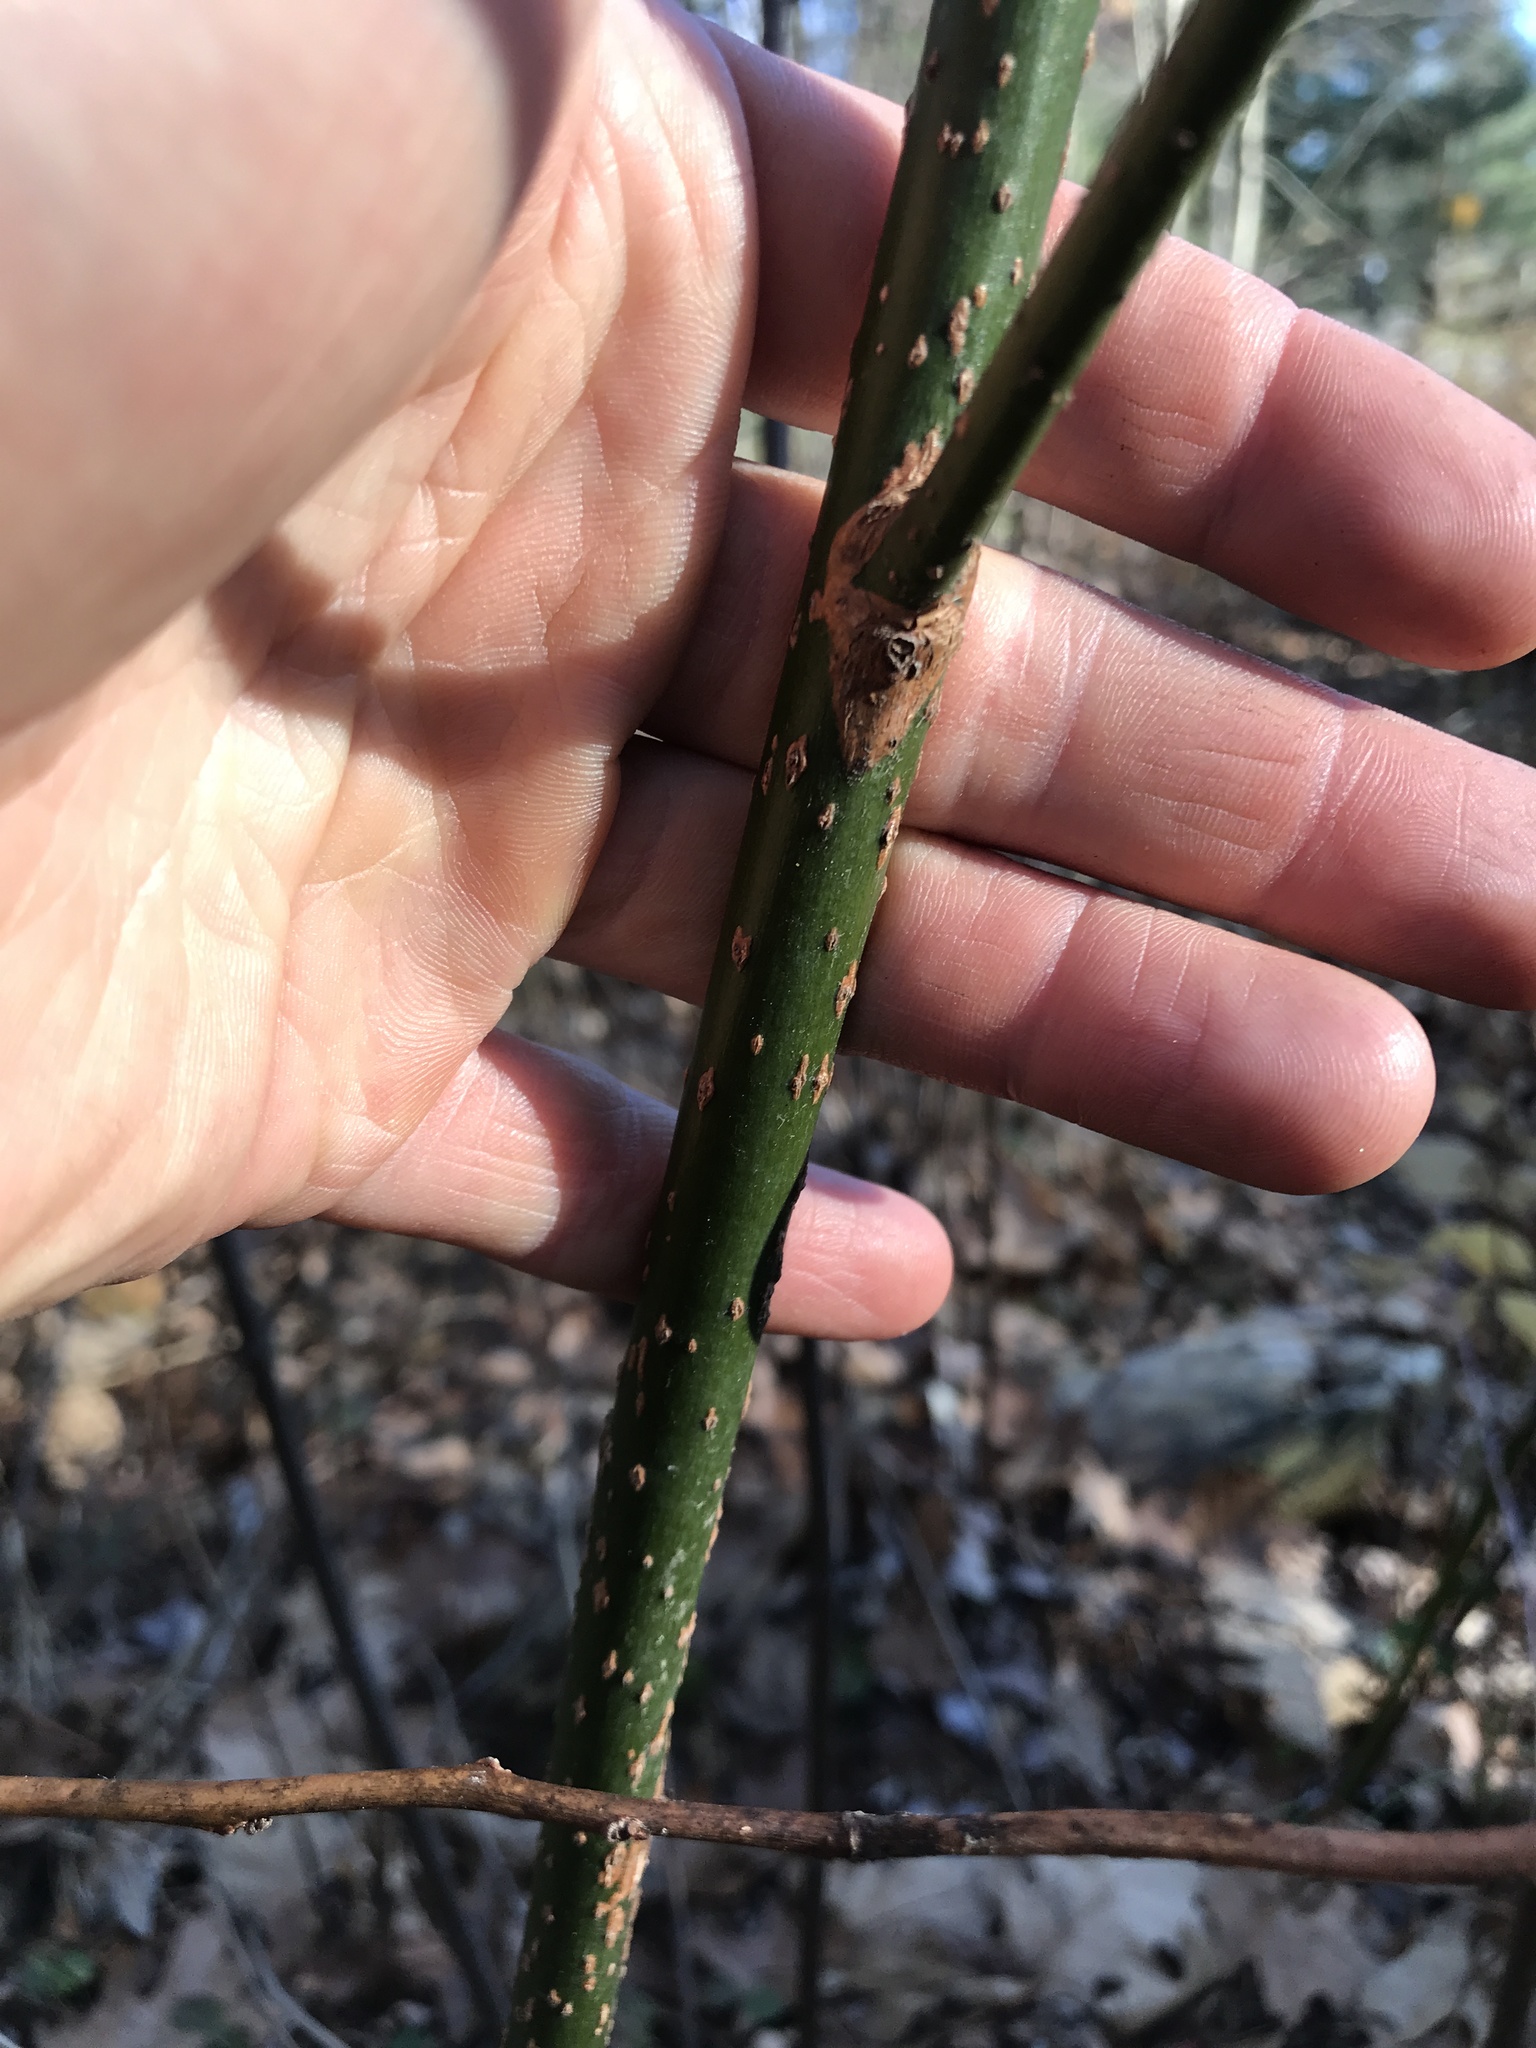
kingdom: Plantae
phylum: Tracheophyta
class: Magnoliopsida
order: Laurales
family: Lauraceae
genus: Sassafras
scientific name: Sassafras albidum
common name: Sassafras
